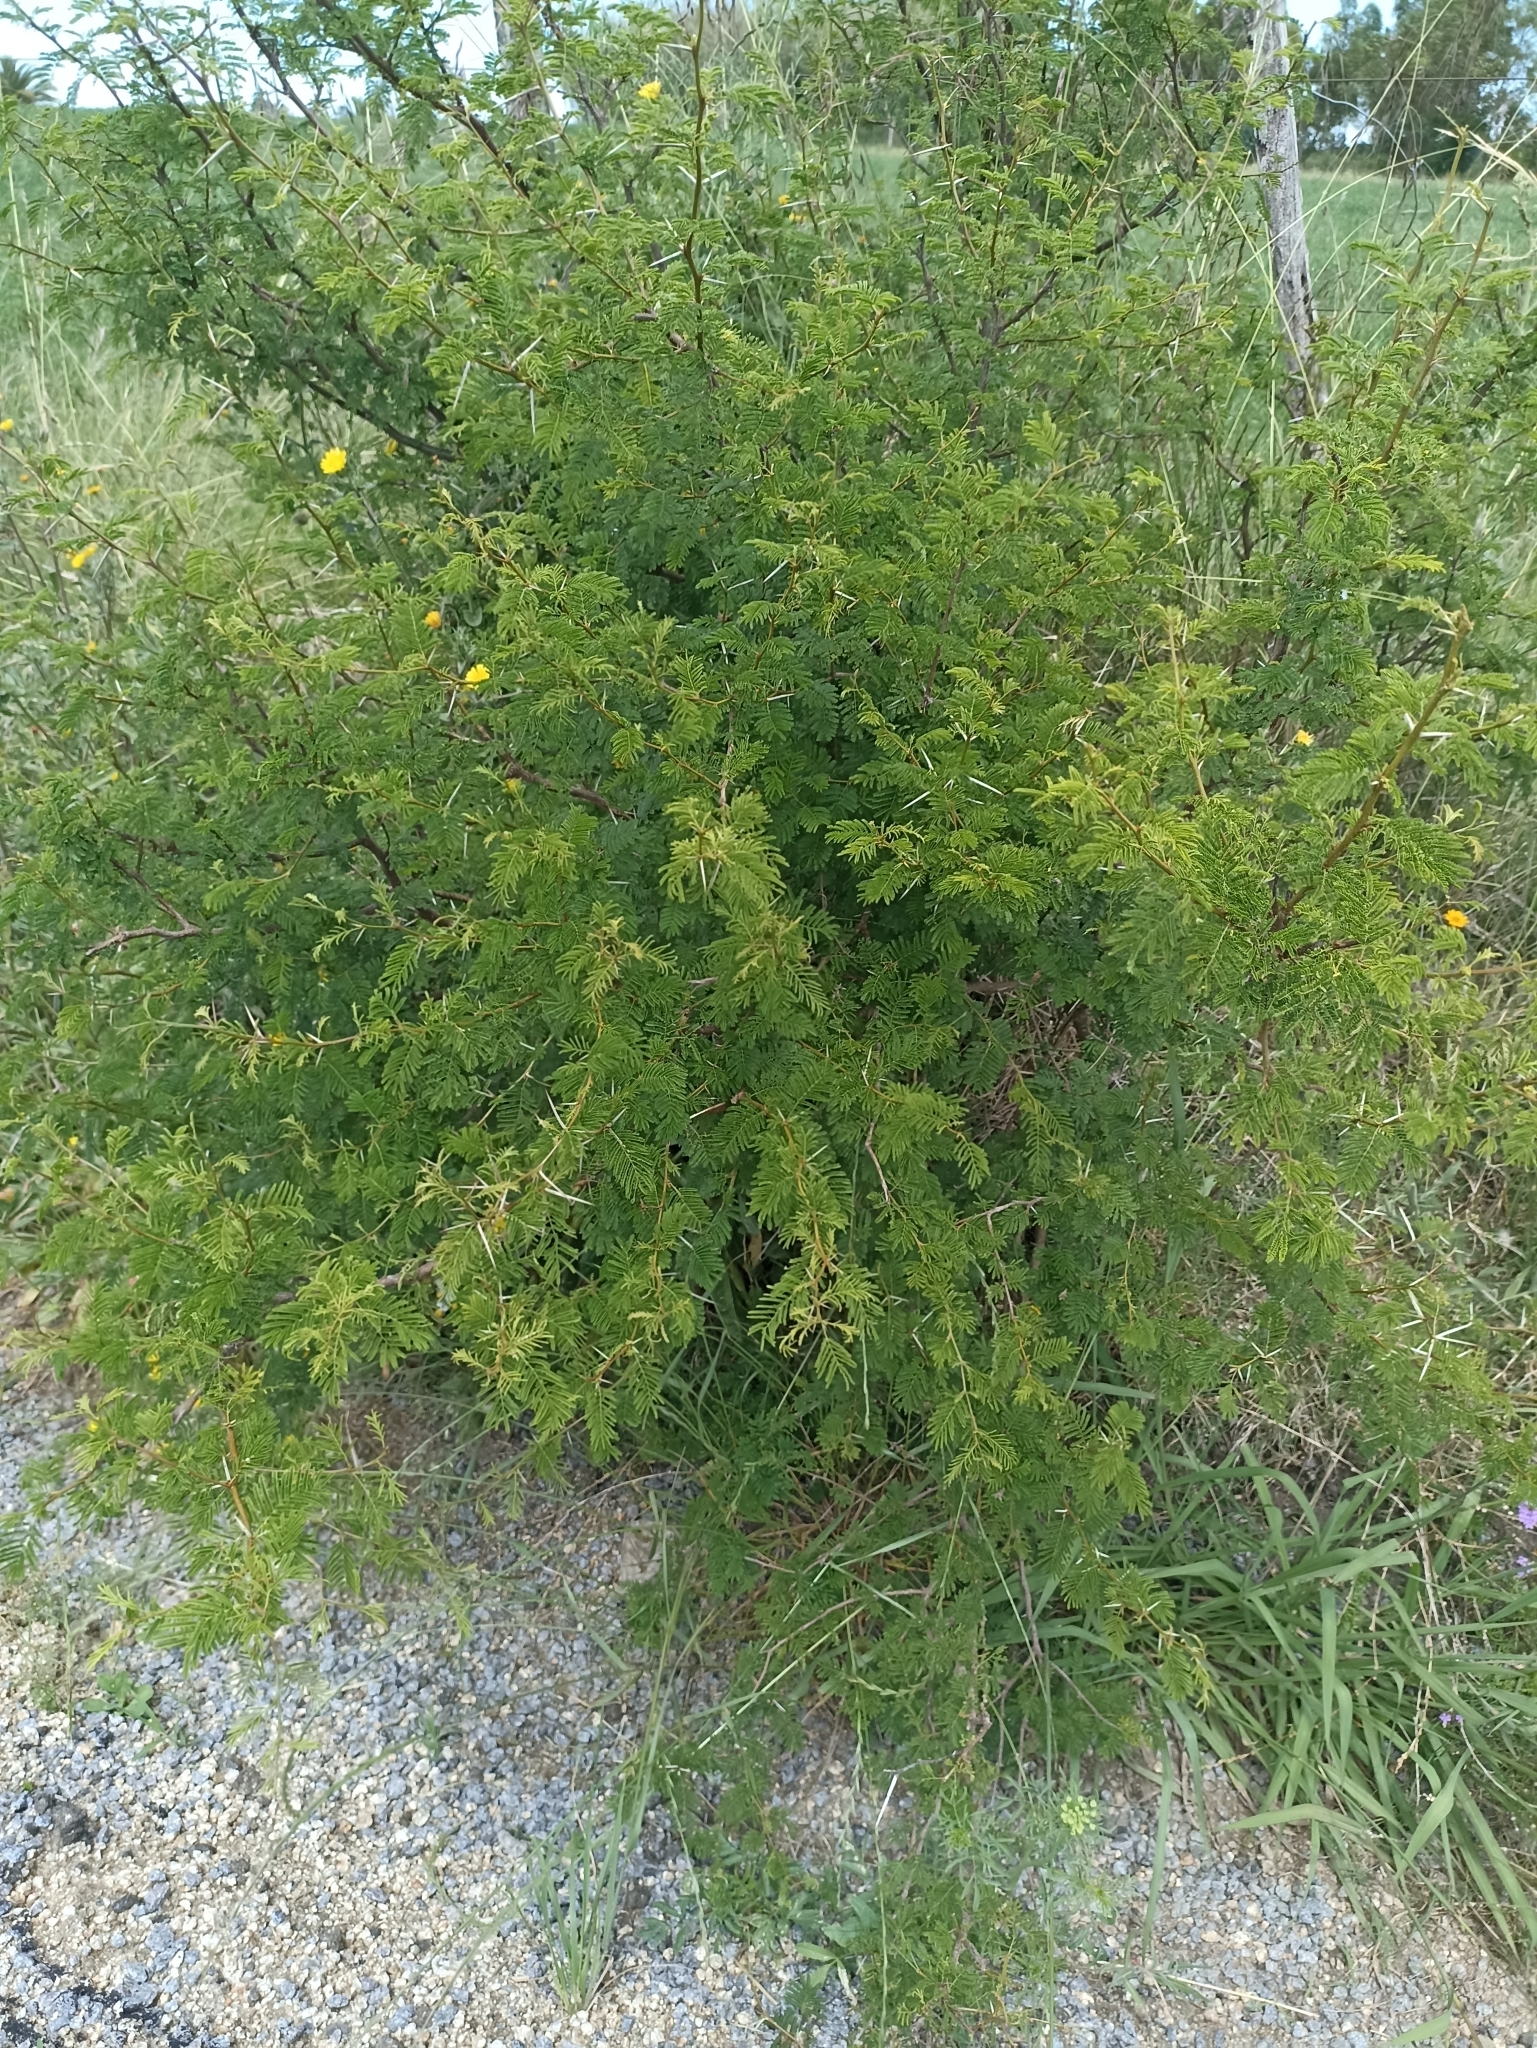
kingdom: Plantae
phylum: Tracheophyta
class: Magnoliopsida
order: Fabales
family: Fabaceae
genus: Vachellia
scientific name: Vachellia caven
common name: Roman cassie
